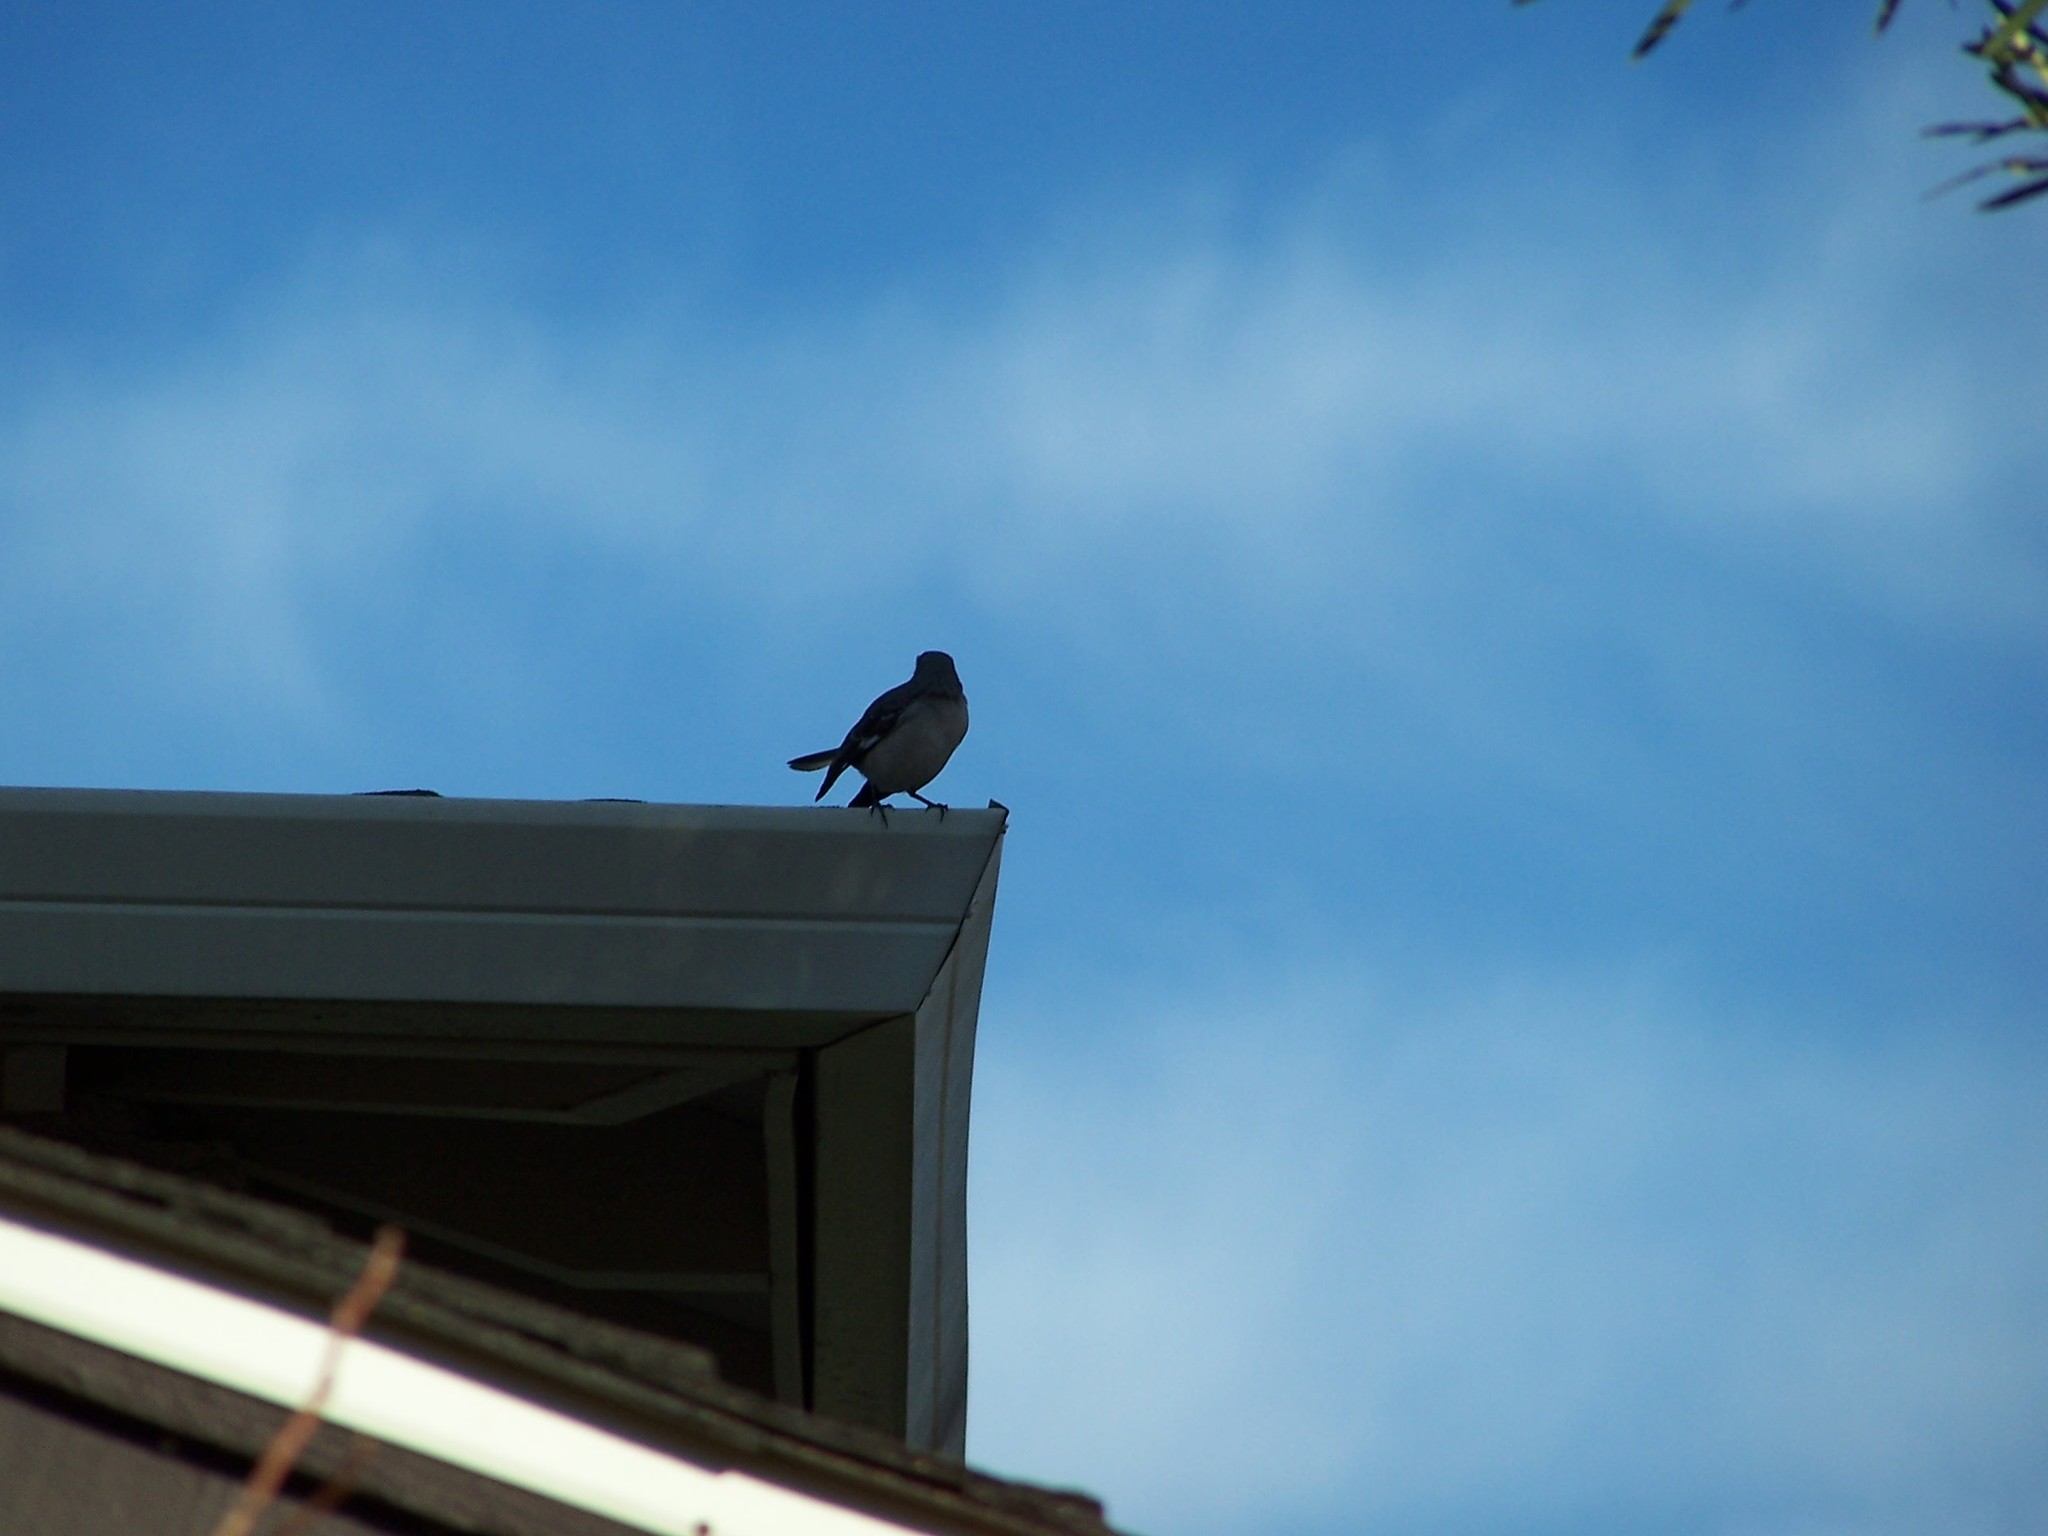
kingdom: Animalia
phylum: Chordata
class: Aves
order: Passeriformes
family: Mimidae
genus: Mimus
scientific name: Mimus polyglottos
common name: Northern mockingbird
